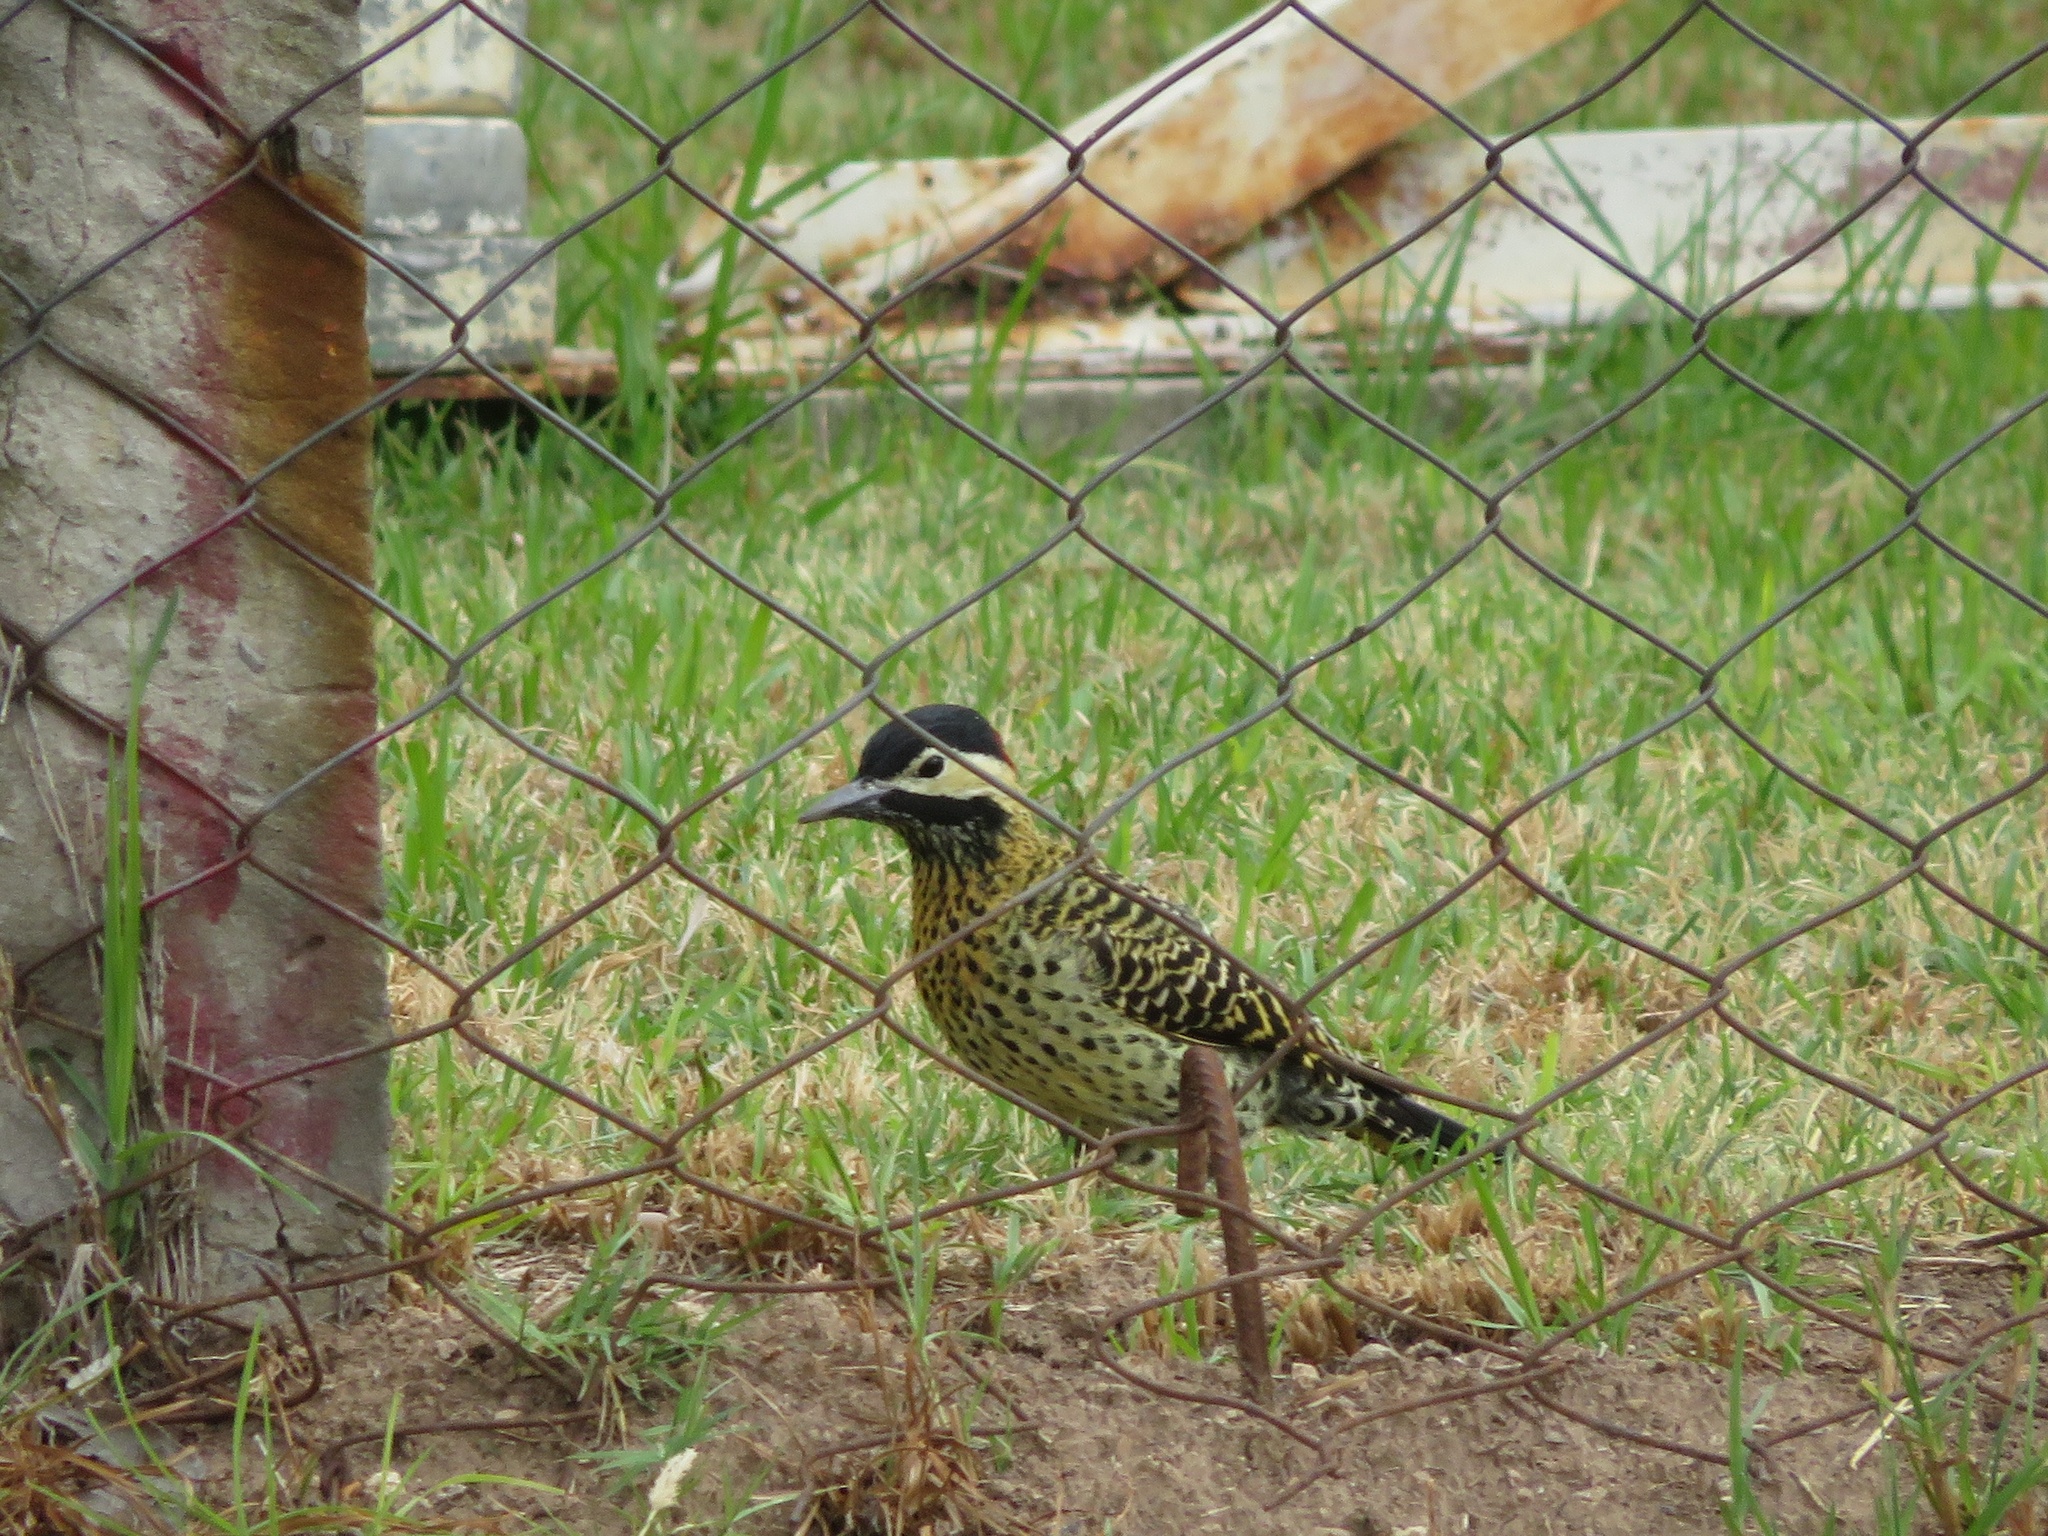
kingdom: Animalia
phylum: Chordata
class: Aves
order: Piciformes
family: Picidae
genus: Colaptes
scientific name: Colaptes melanochloros
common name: Green-barred woodpecker
